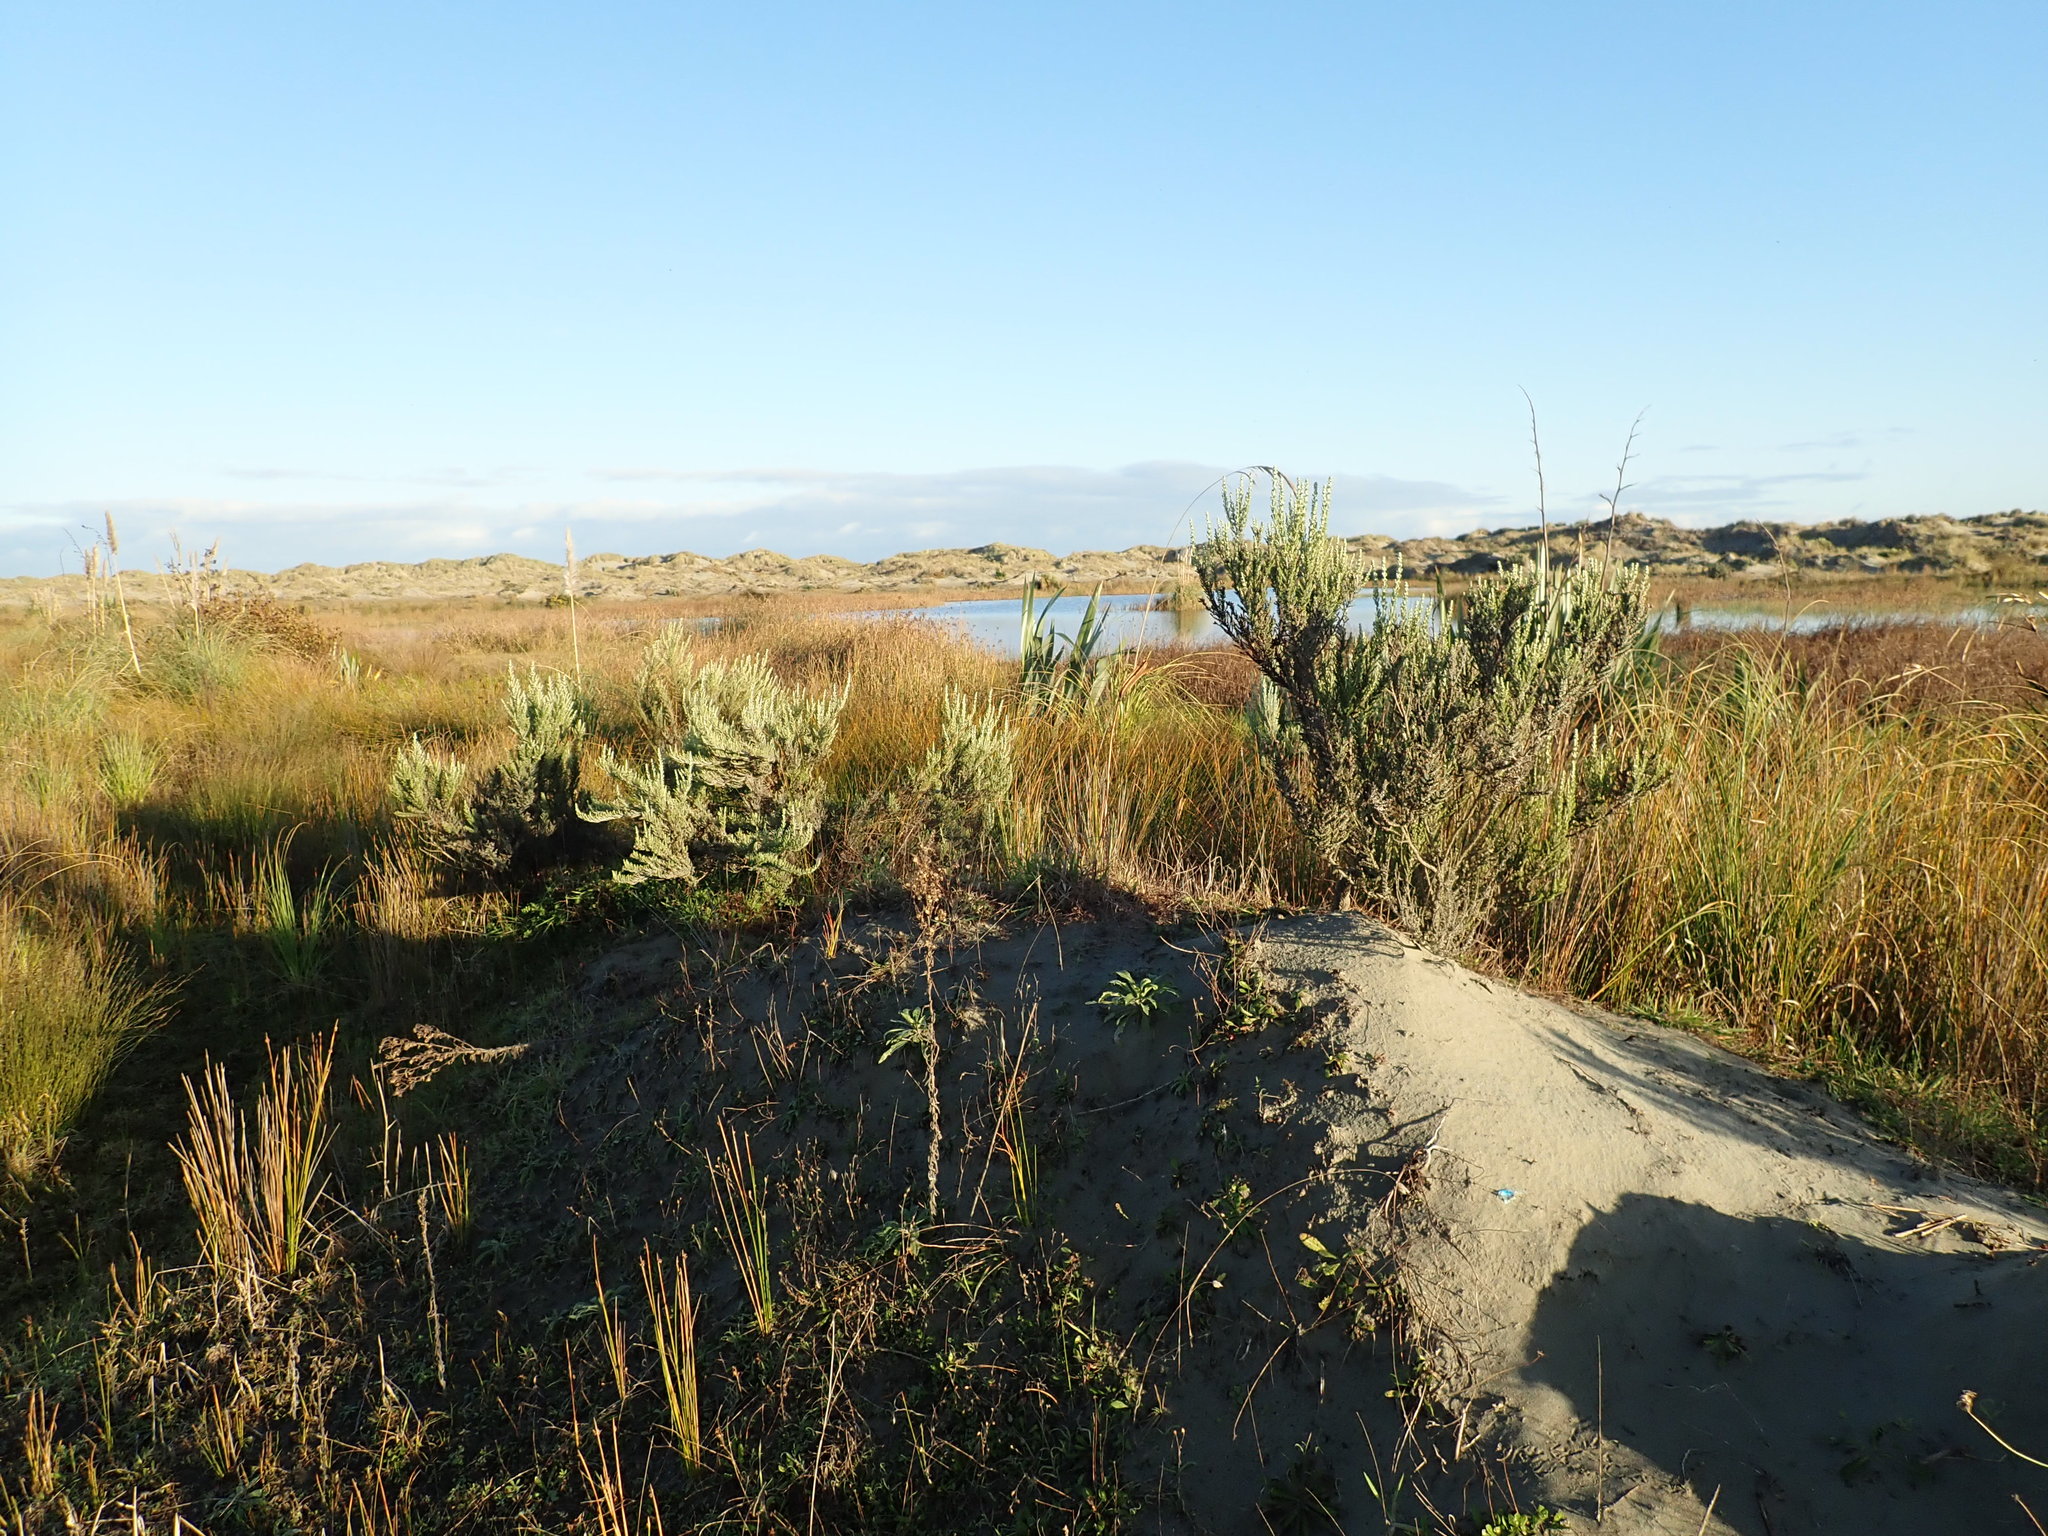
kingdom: Plantae
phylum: Tracheophyta
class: Magnoliopsida
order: Asterales
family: Asteraceae
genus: Ozothamnus
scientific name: Ozothamnus leptophyllus
